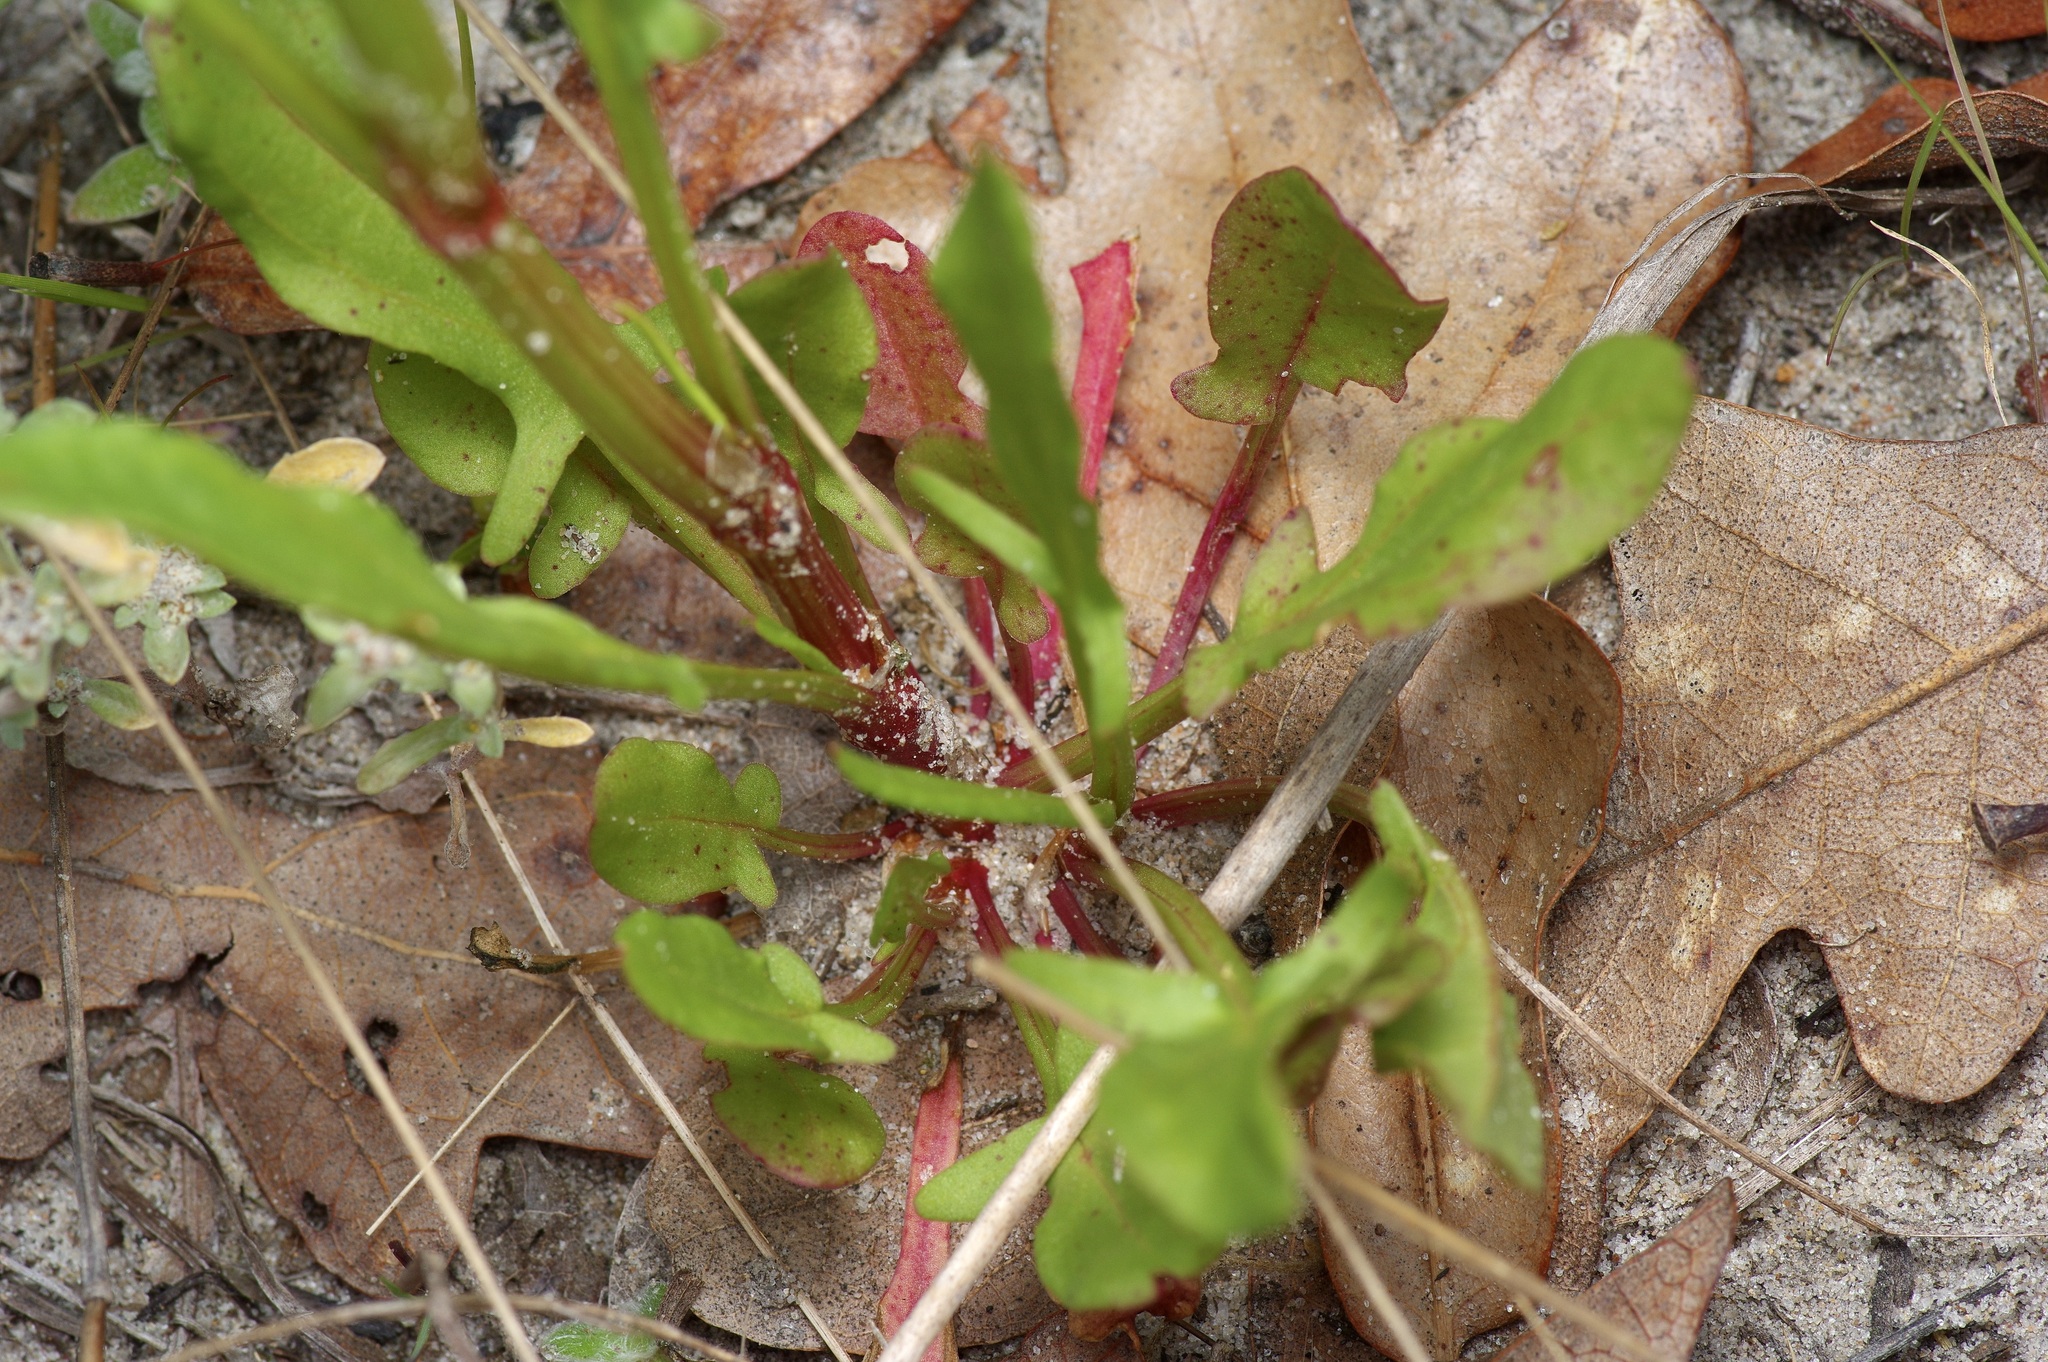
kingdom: Plantae
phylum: Tracheophyta
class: Magnoliopsida
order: Caryophyllales
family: Polygonaceae
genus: Rumex
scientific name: Rumex hastatulus
